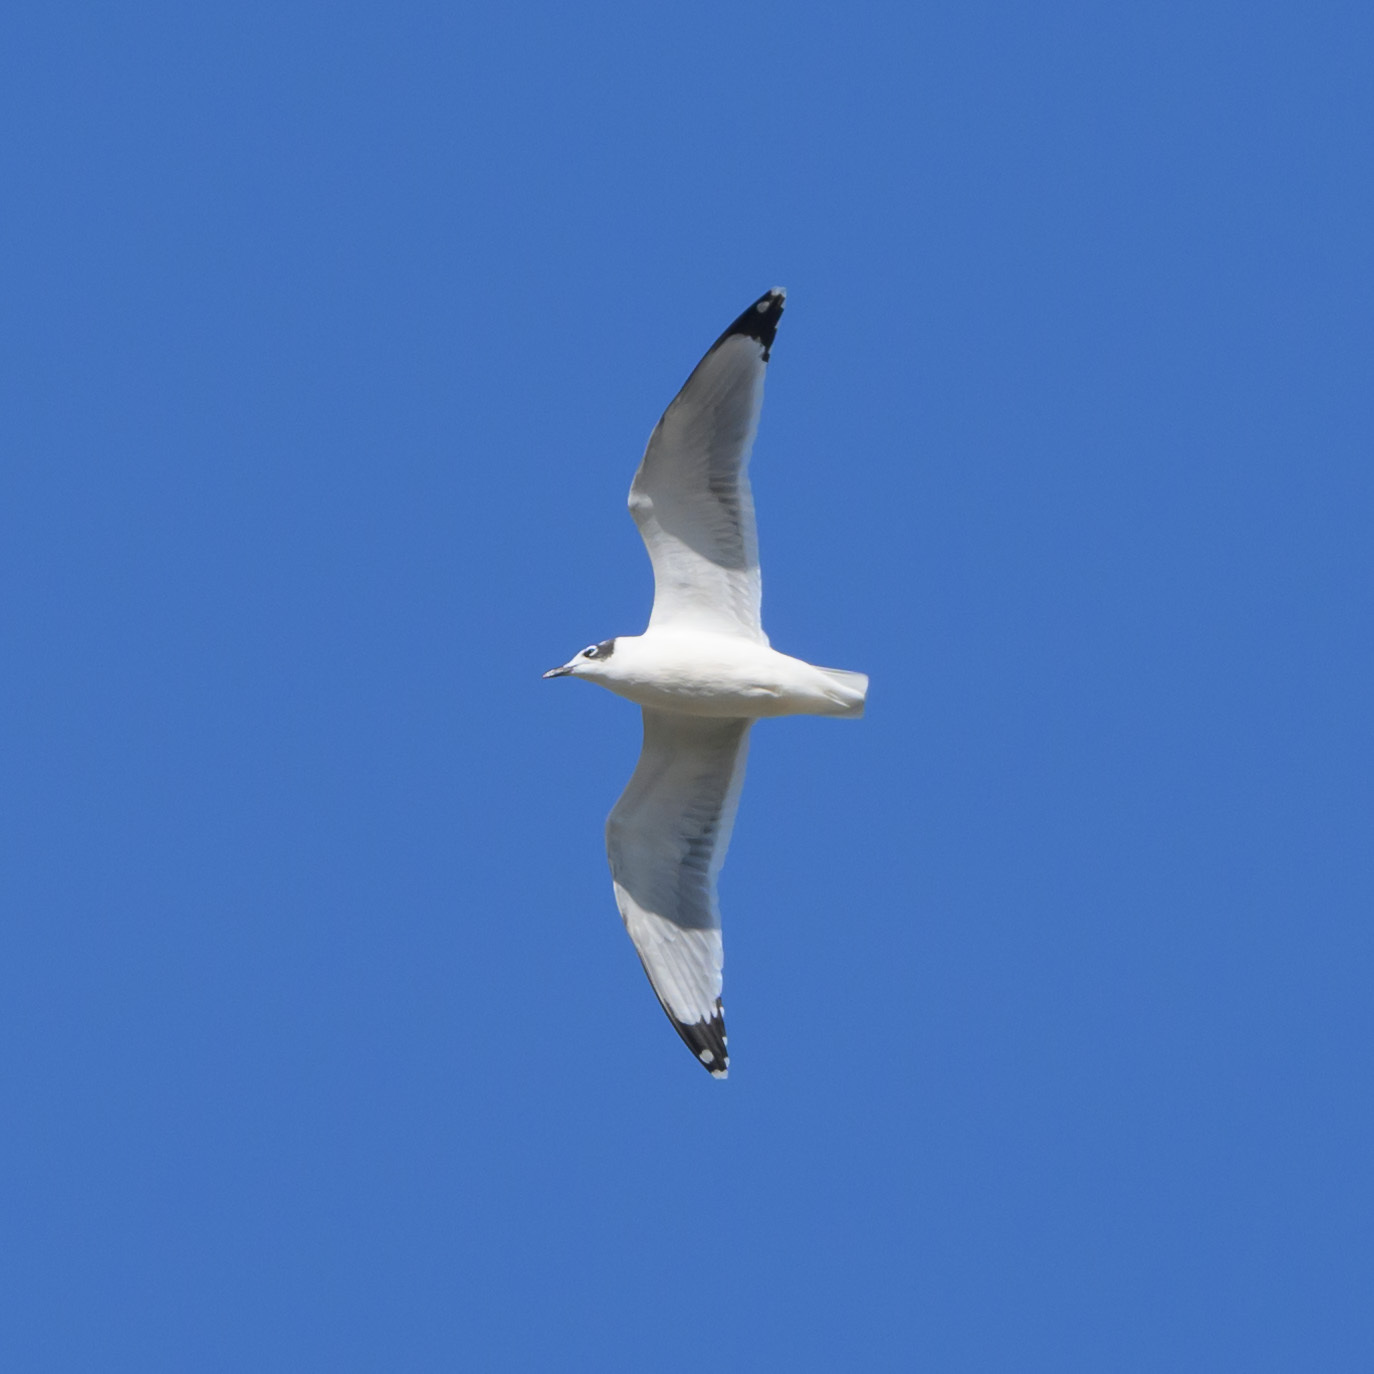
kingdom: Animalia
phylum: Chordata
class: Aves
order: Charadriiformes
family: Laridae
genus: Leucophaeus
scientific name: Leucophaeus pipixcan
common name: Franklin's gull
